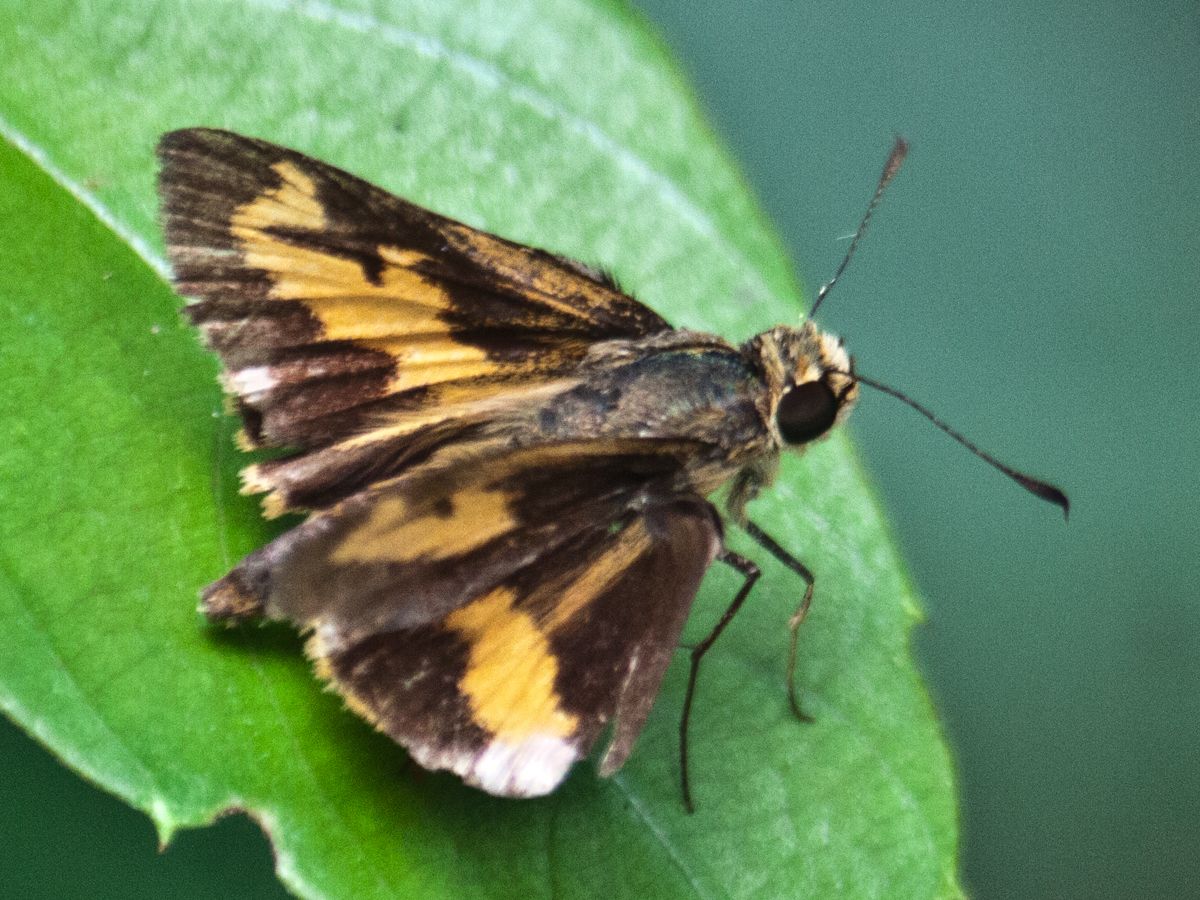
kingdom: Animalia
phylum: Arthropoda
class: Insecta
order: Lepidoptera
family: Hesperiidae
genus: Oriens
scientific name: Oriens gola
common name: Common dartlet
